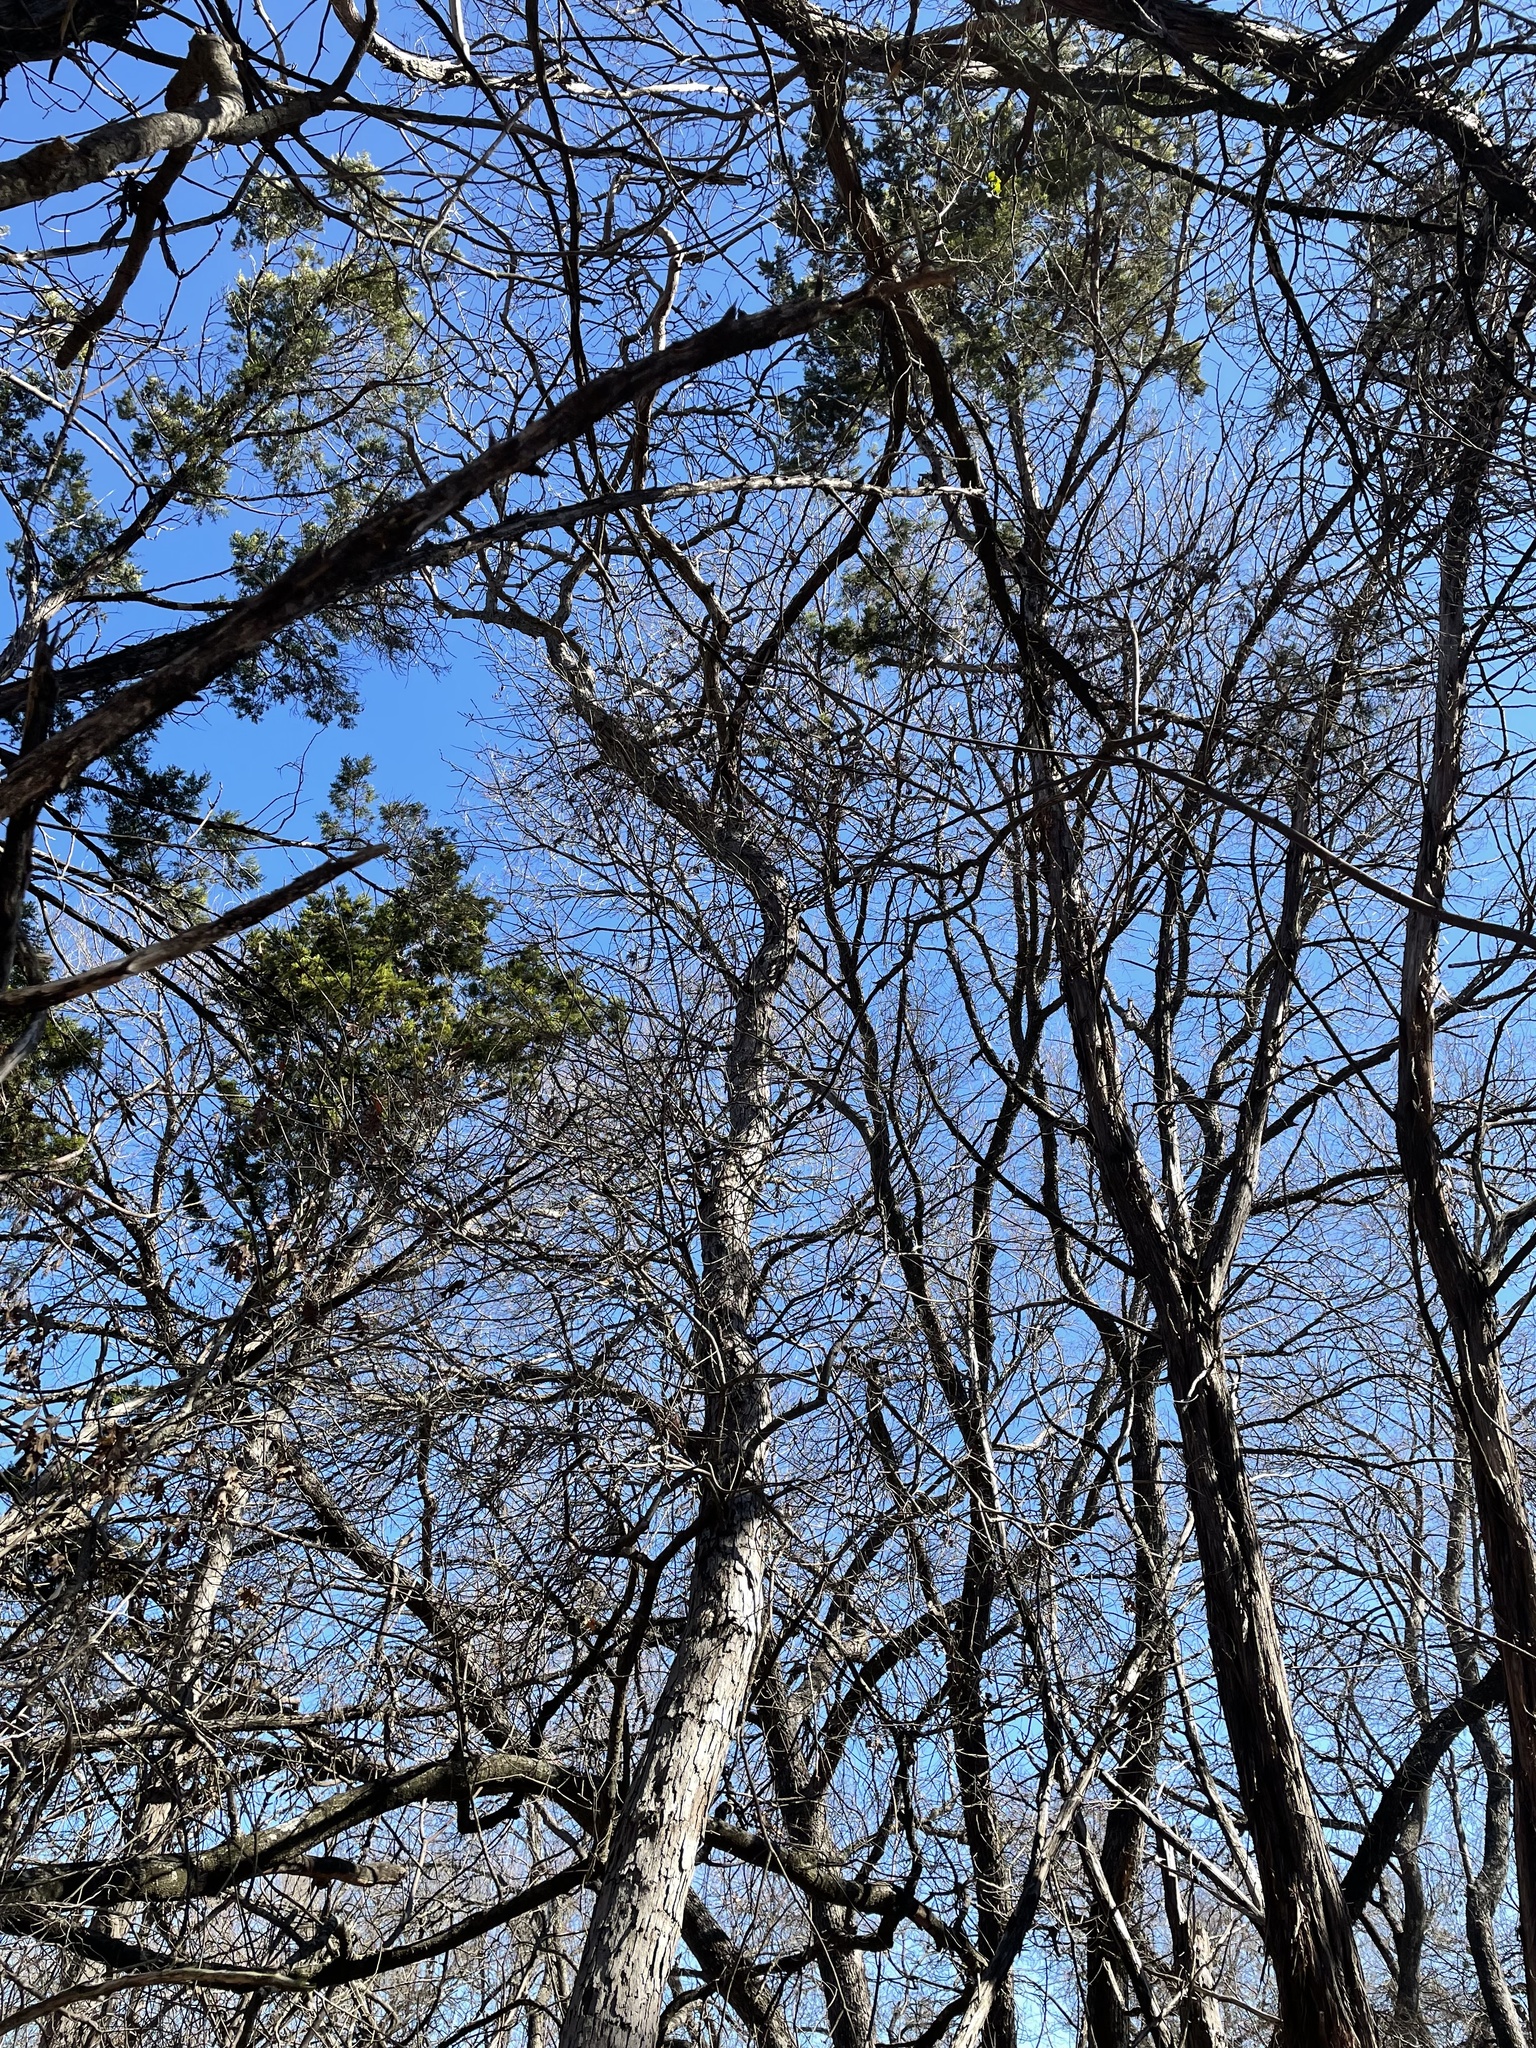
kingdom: Plantae
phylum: Tracheophyta
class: Magnoliopsida
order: Fagales
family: Fagaceae
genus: Quercus
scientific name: Quercus sinuata
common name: Durand oak
